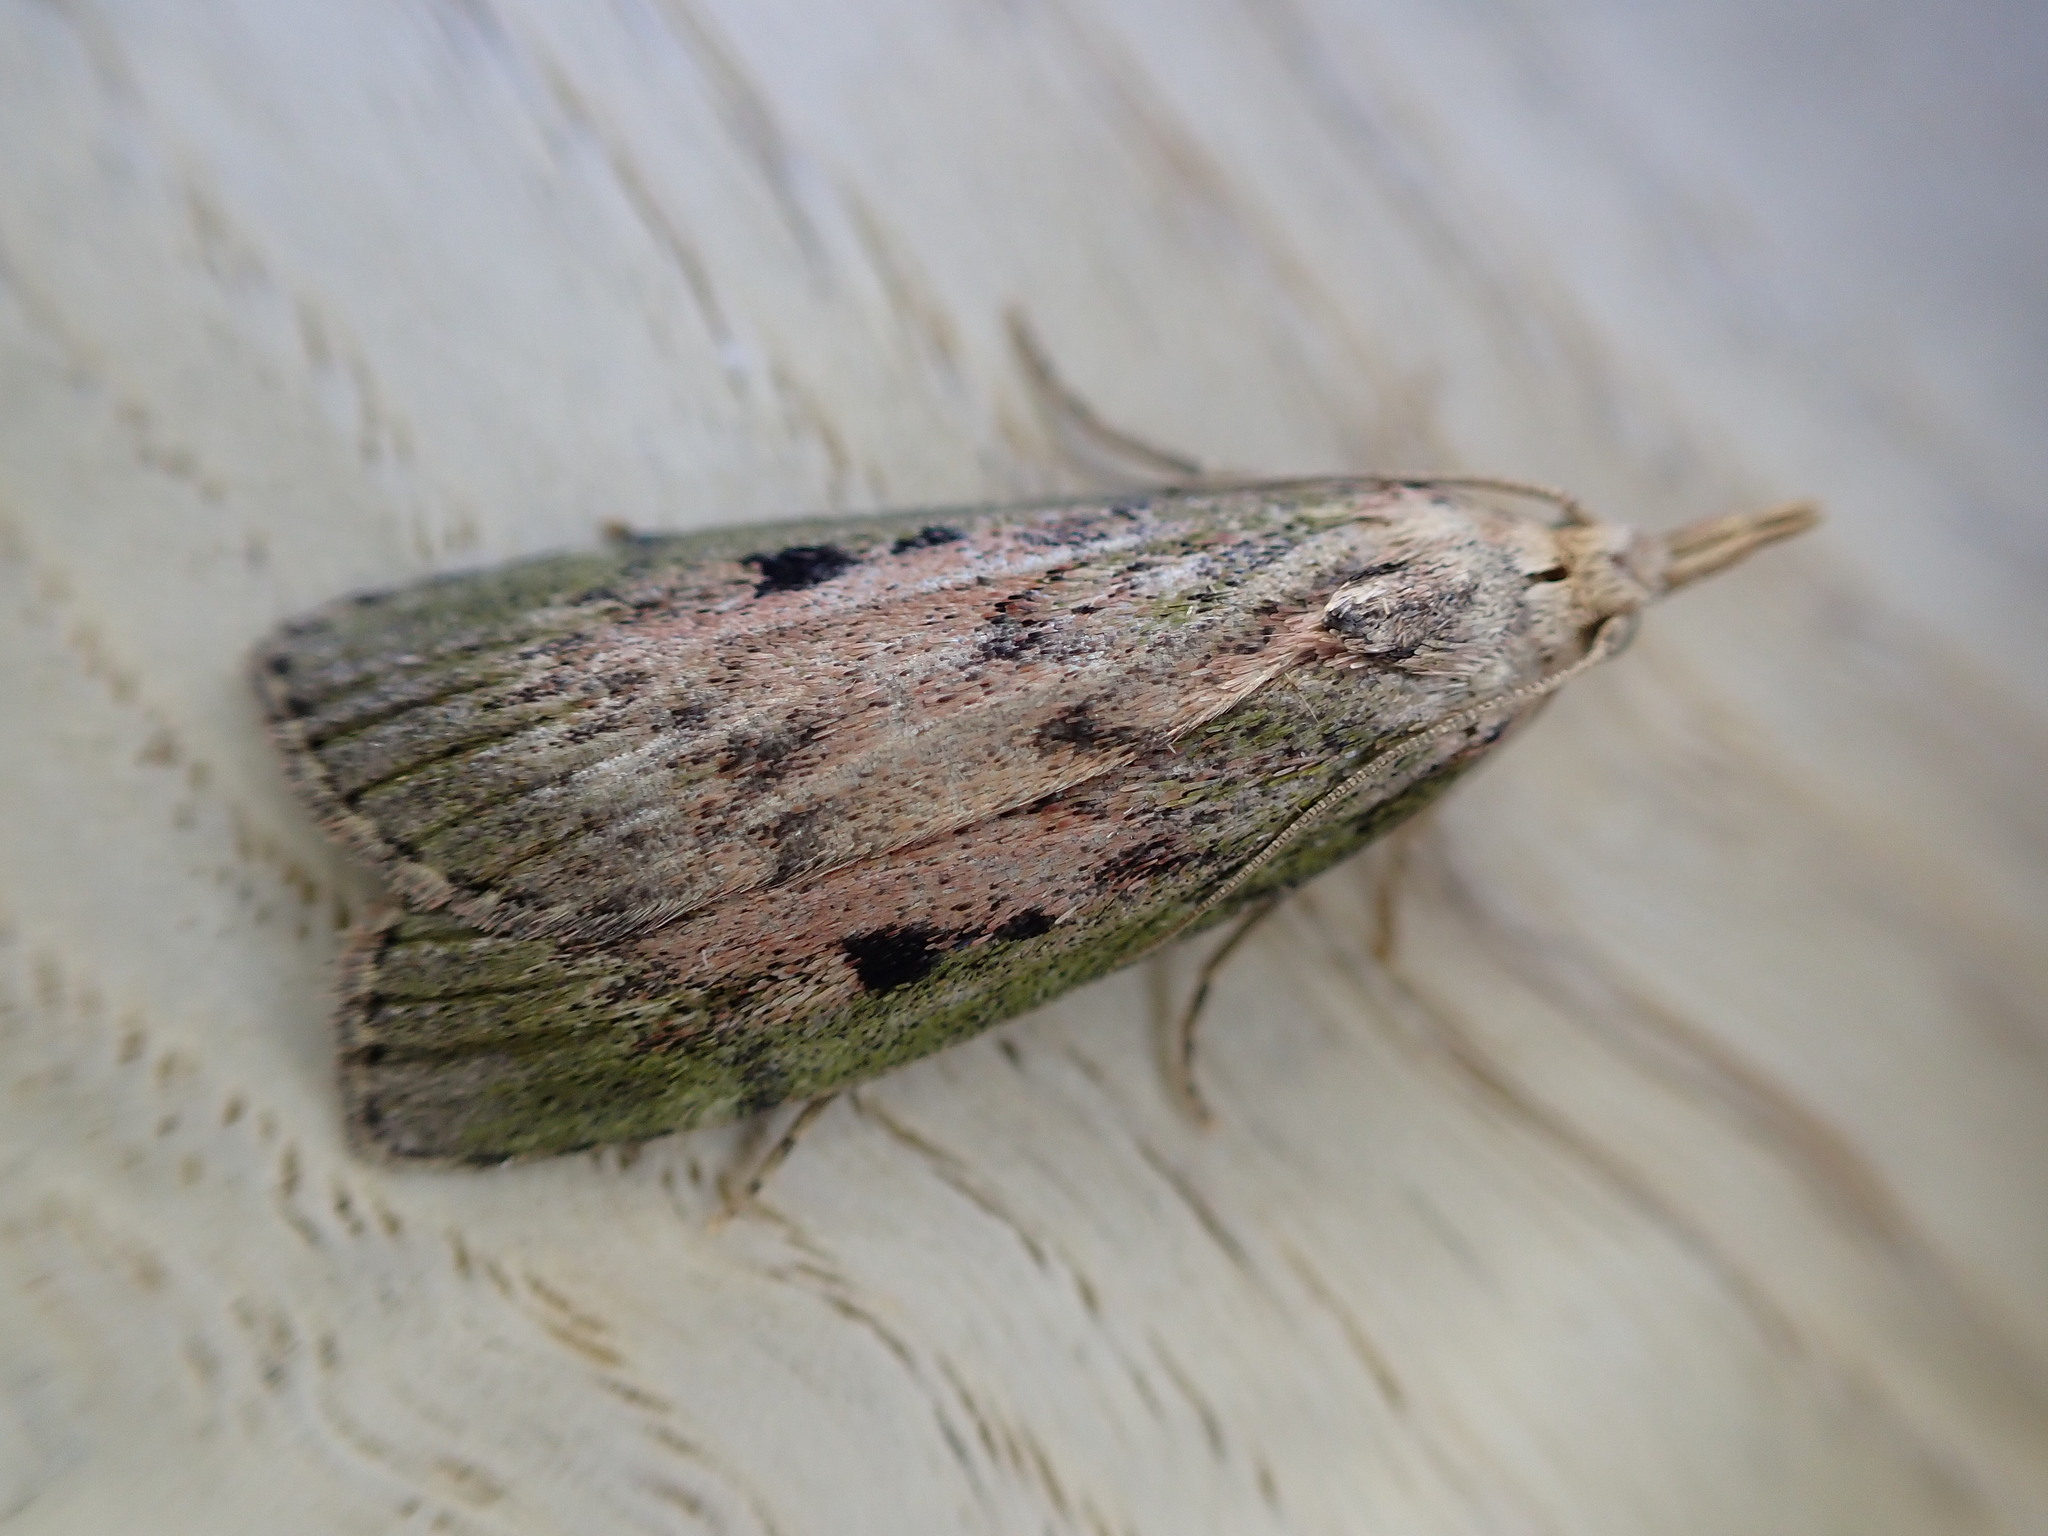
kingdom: Animalia
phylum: Arthropoda
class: Insecta
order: Lepidoptera
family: Pyralidae
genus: Aphomia
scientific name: Aphomia sociella
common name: Bee moth
